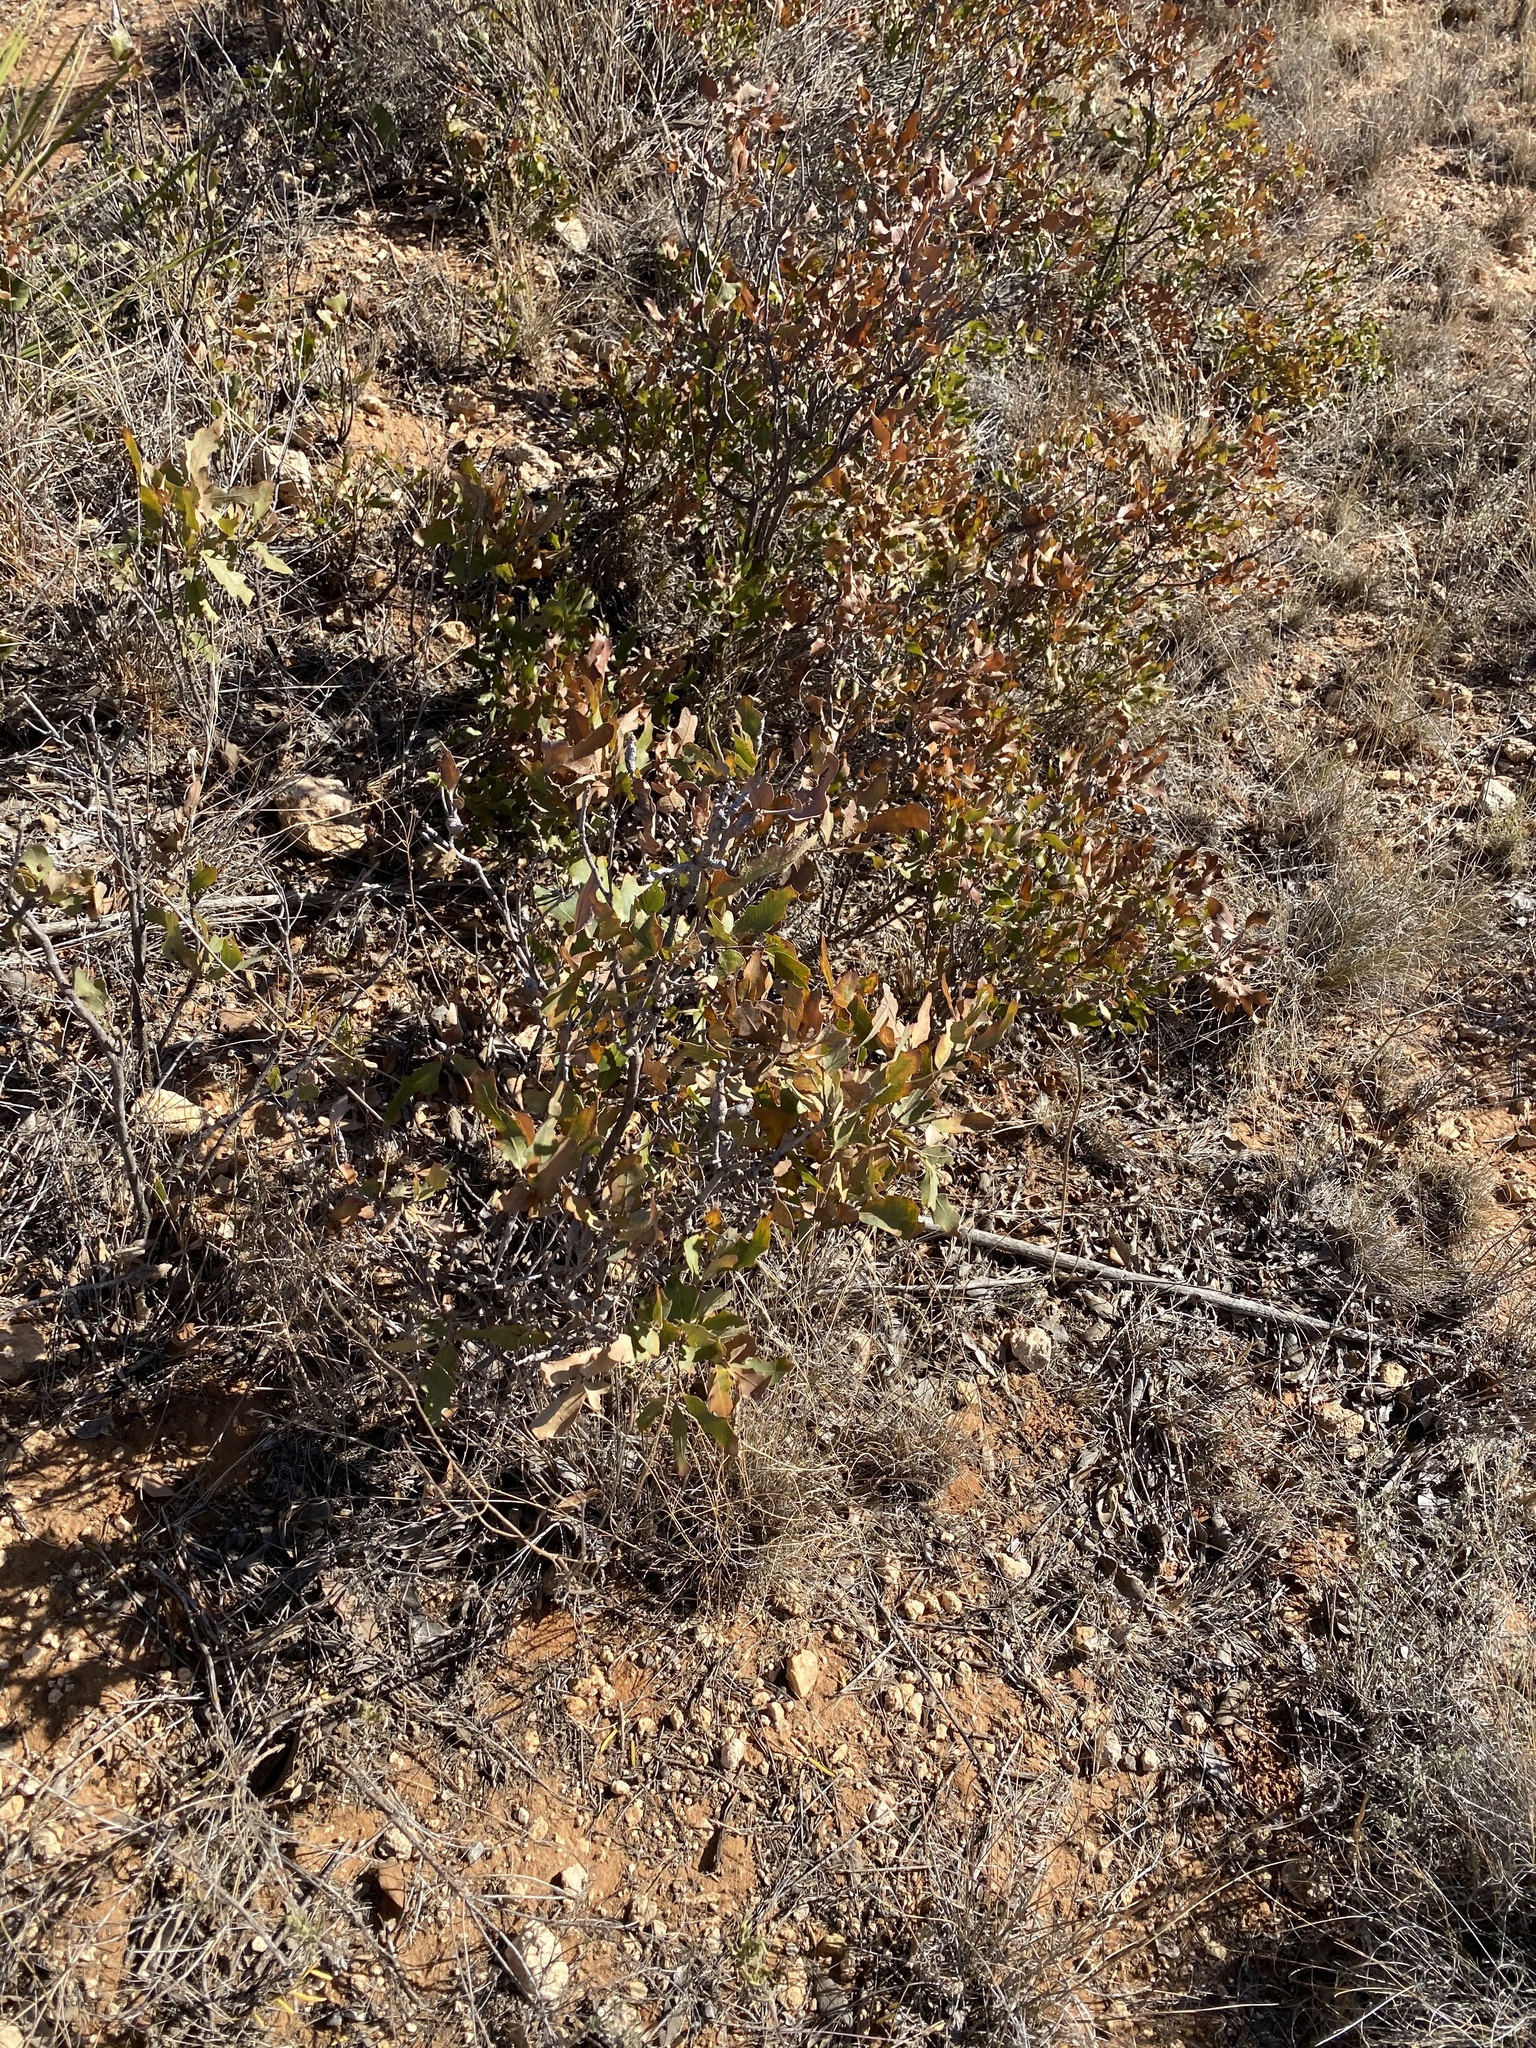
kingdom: Plantae
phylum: Tracheophyta
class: Magnoliopsida
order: Fagales
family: Fagaceae
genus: Quercus
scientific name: Quercus havardii
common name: Shinnery oak
